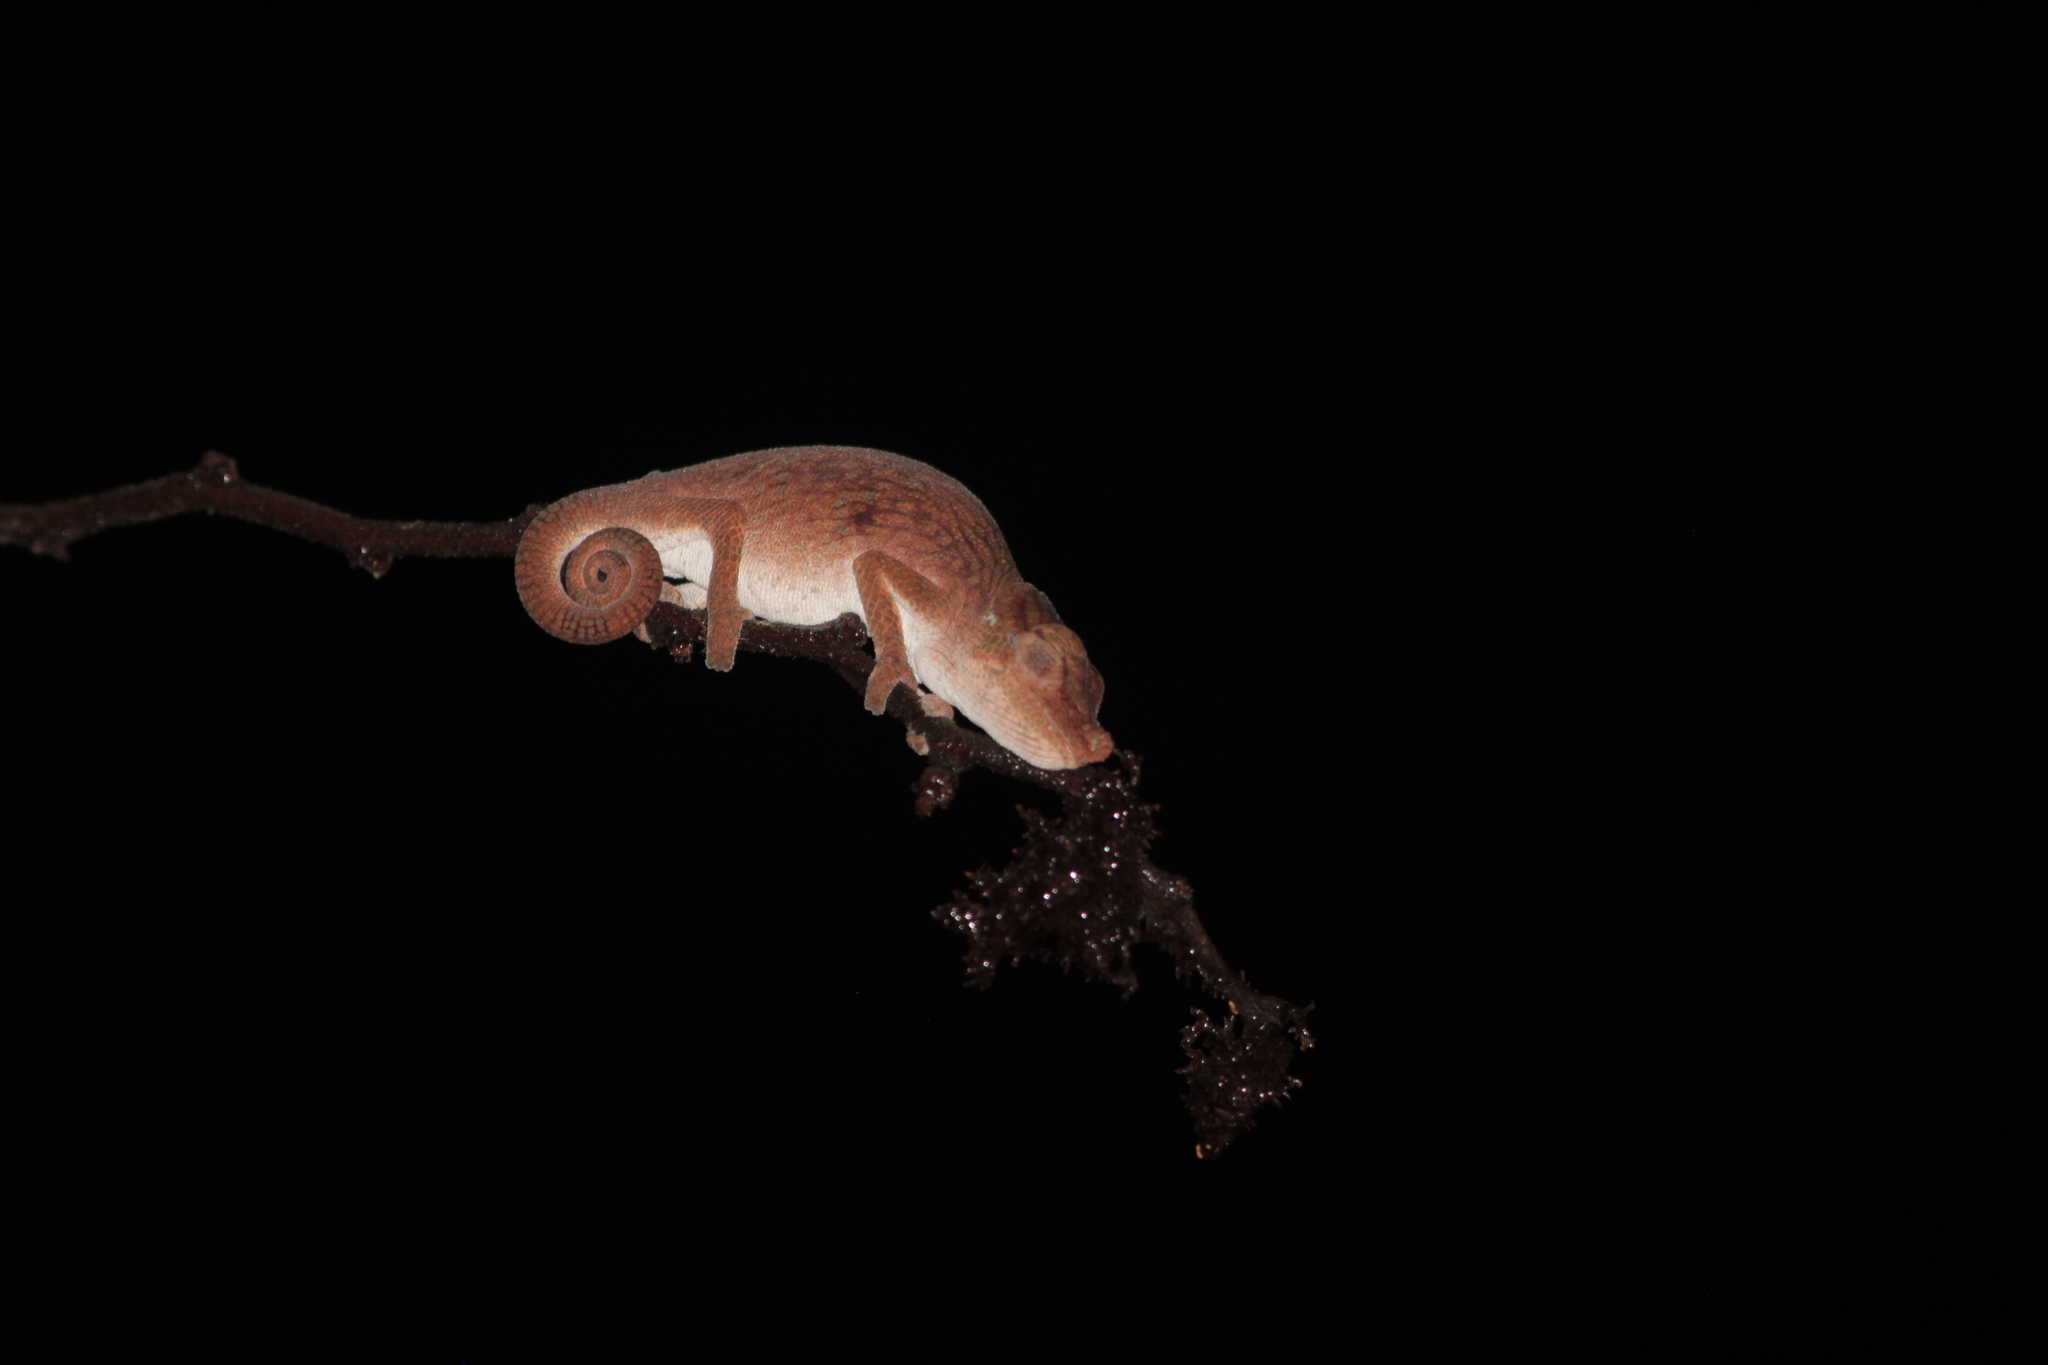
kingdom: Animalia
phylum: Chordata
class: Squamata
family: Chamaeleonidae
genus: Calumma
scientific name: Calumma emelinae
